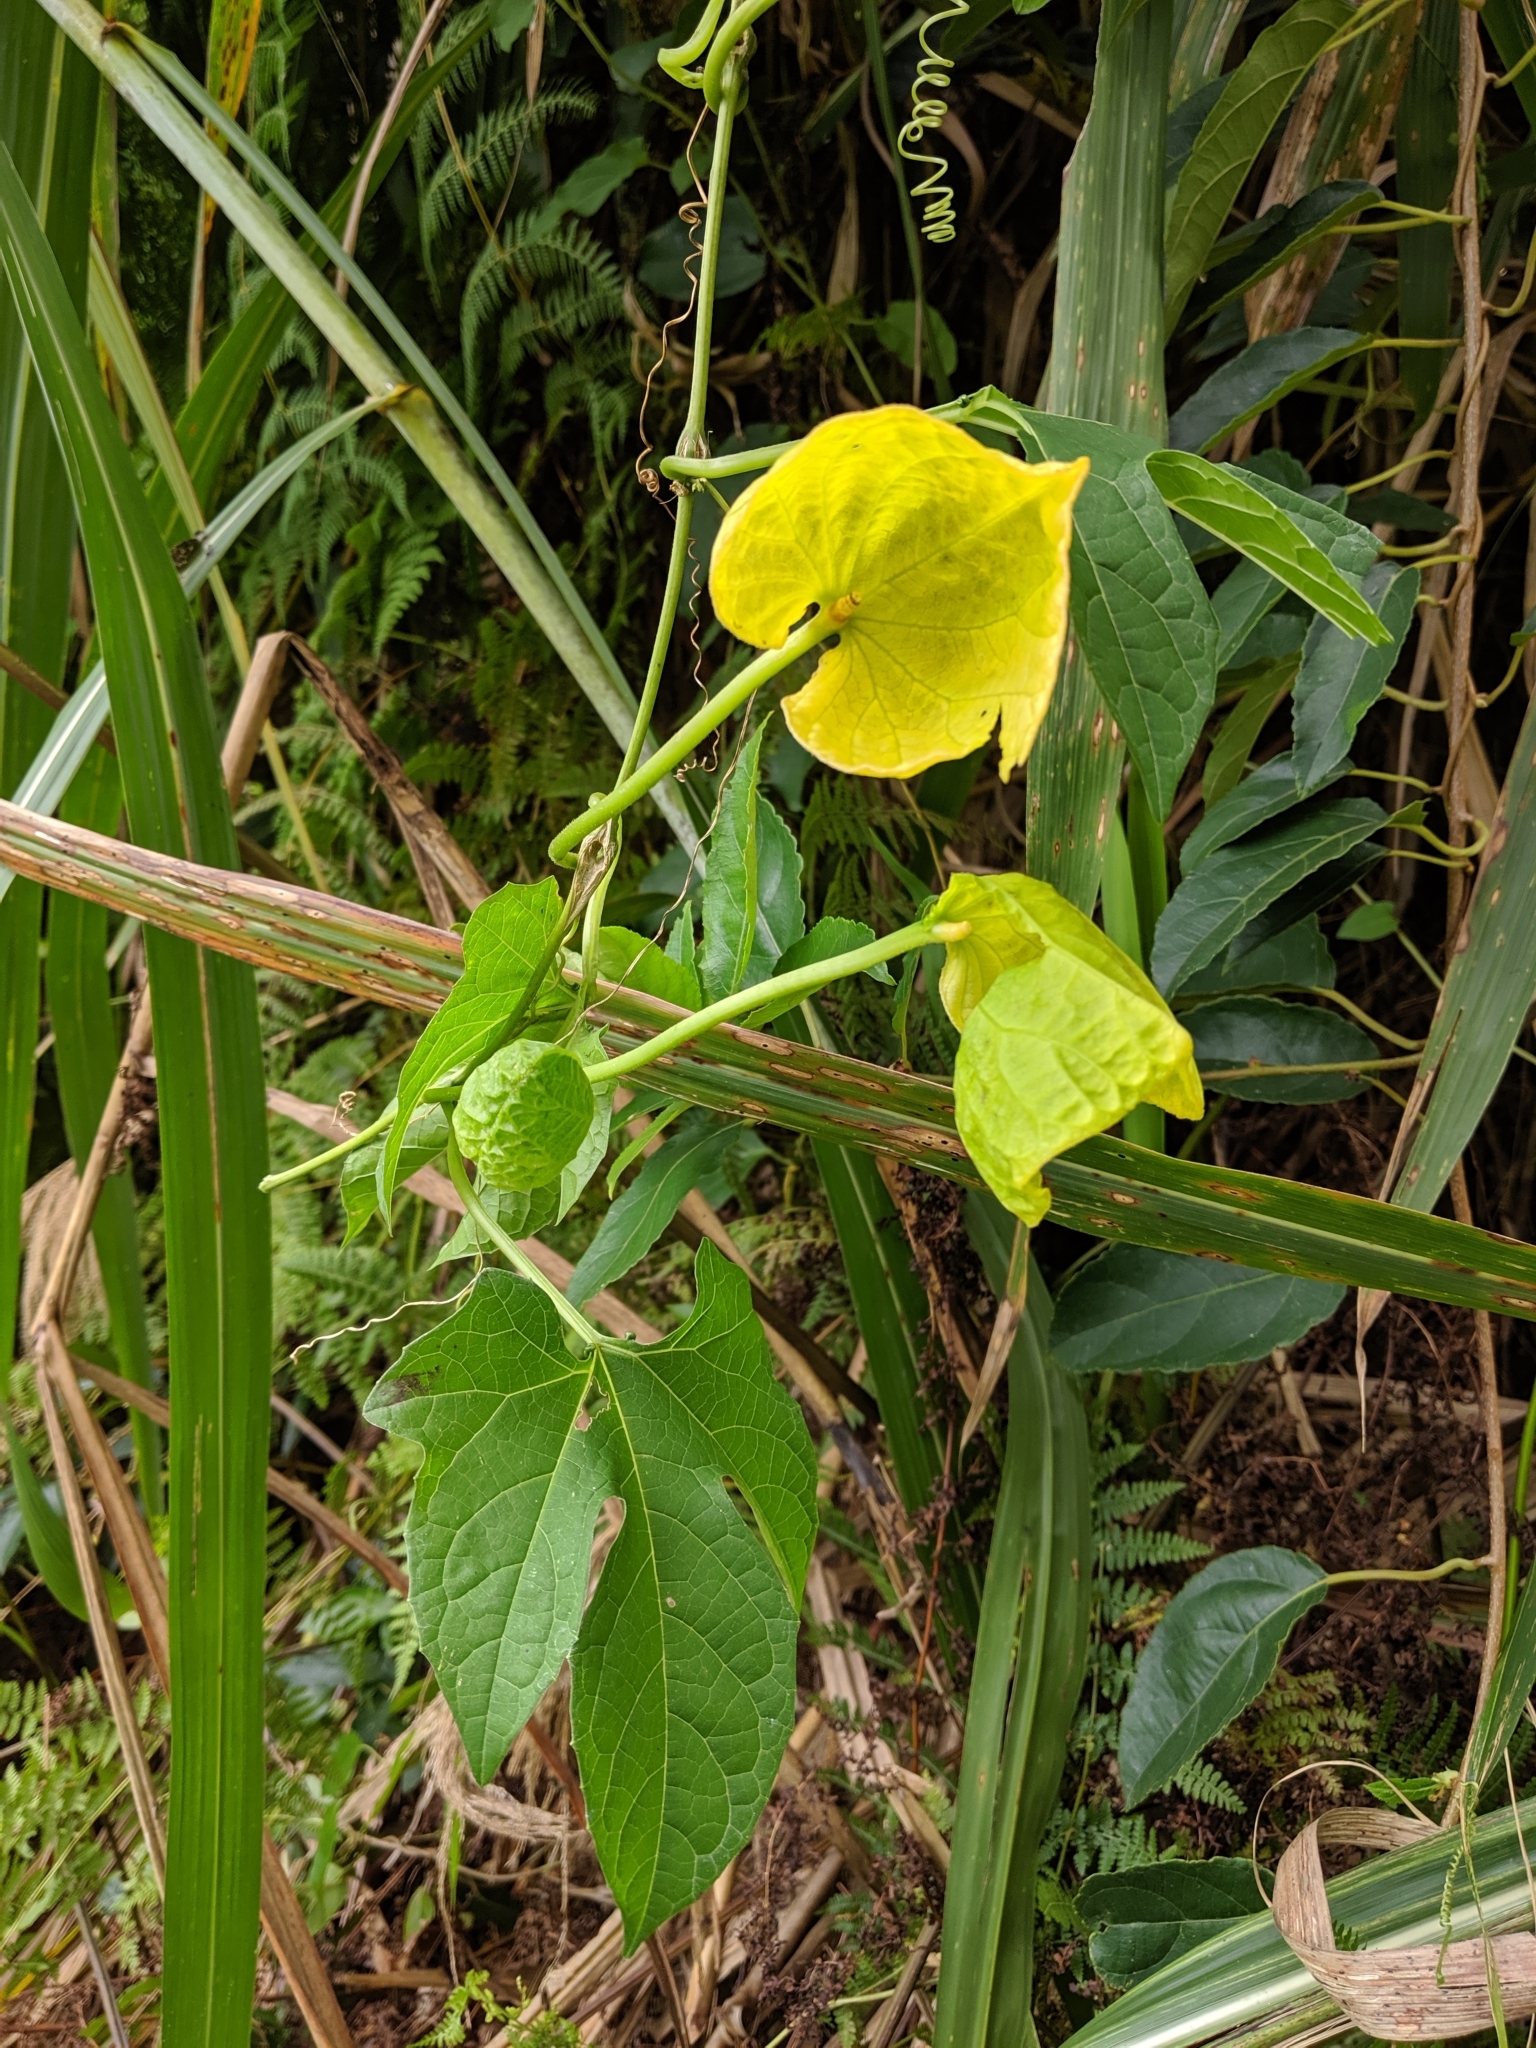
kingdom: Plantae
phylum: Tracheophyta
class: Magnoliopsida
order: Cucurbitales
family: Cucurbitaceae
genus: Momordica
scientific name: Momordica cochinchinensis
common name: Chinese bitter-cucumber
